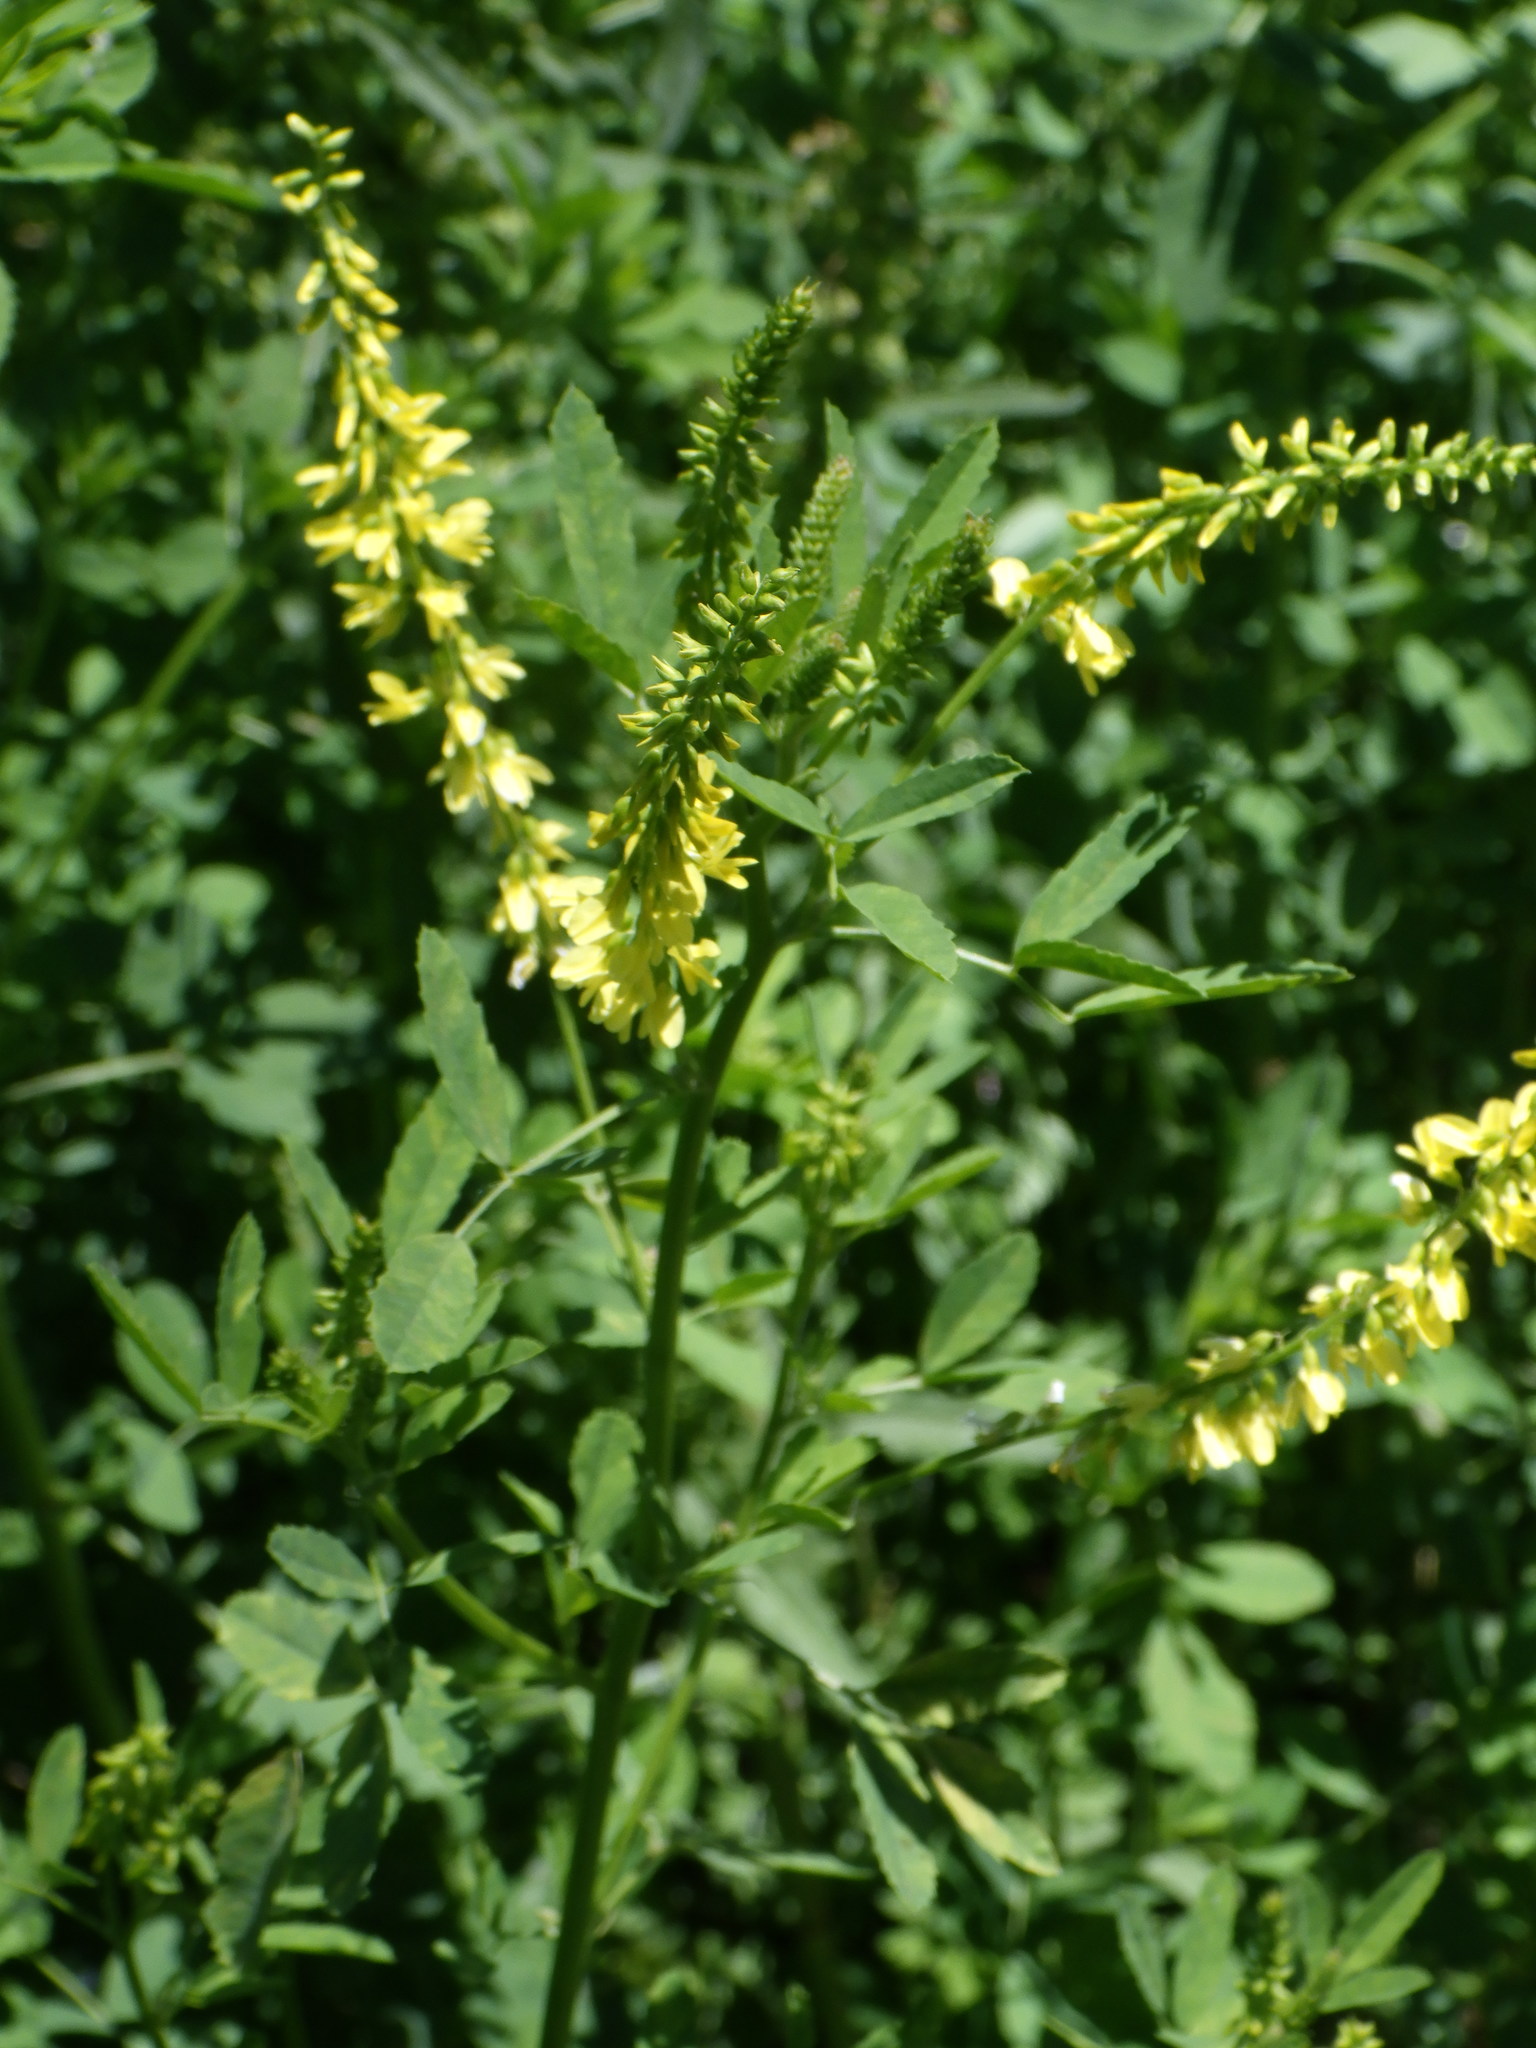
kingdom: Plantae
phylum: Tracheophyta
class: Magnoliopsida
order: Fabales
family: Fabaceae
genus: Melilotus
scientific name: Melilotus officinalis
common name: Sweetclover
